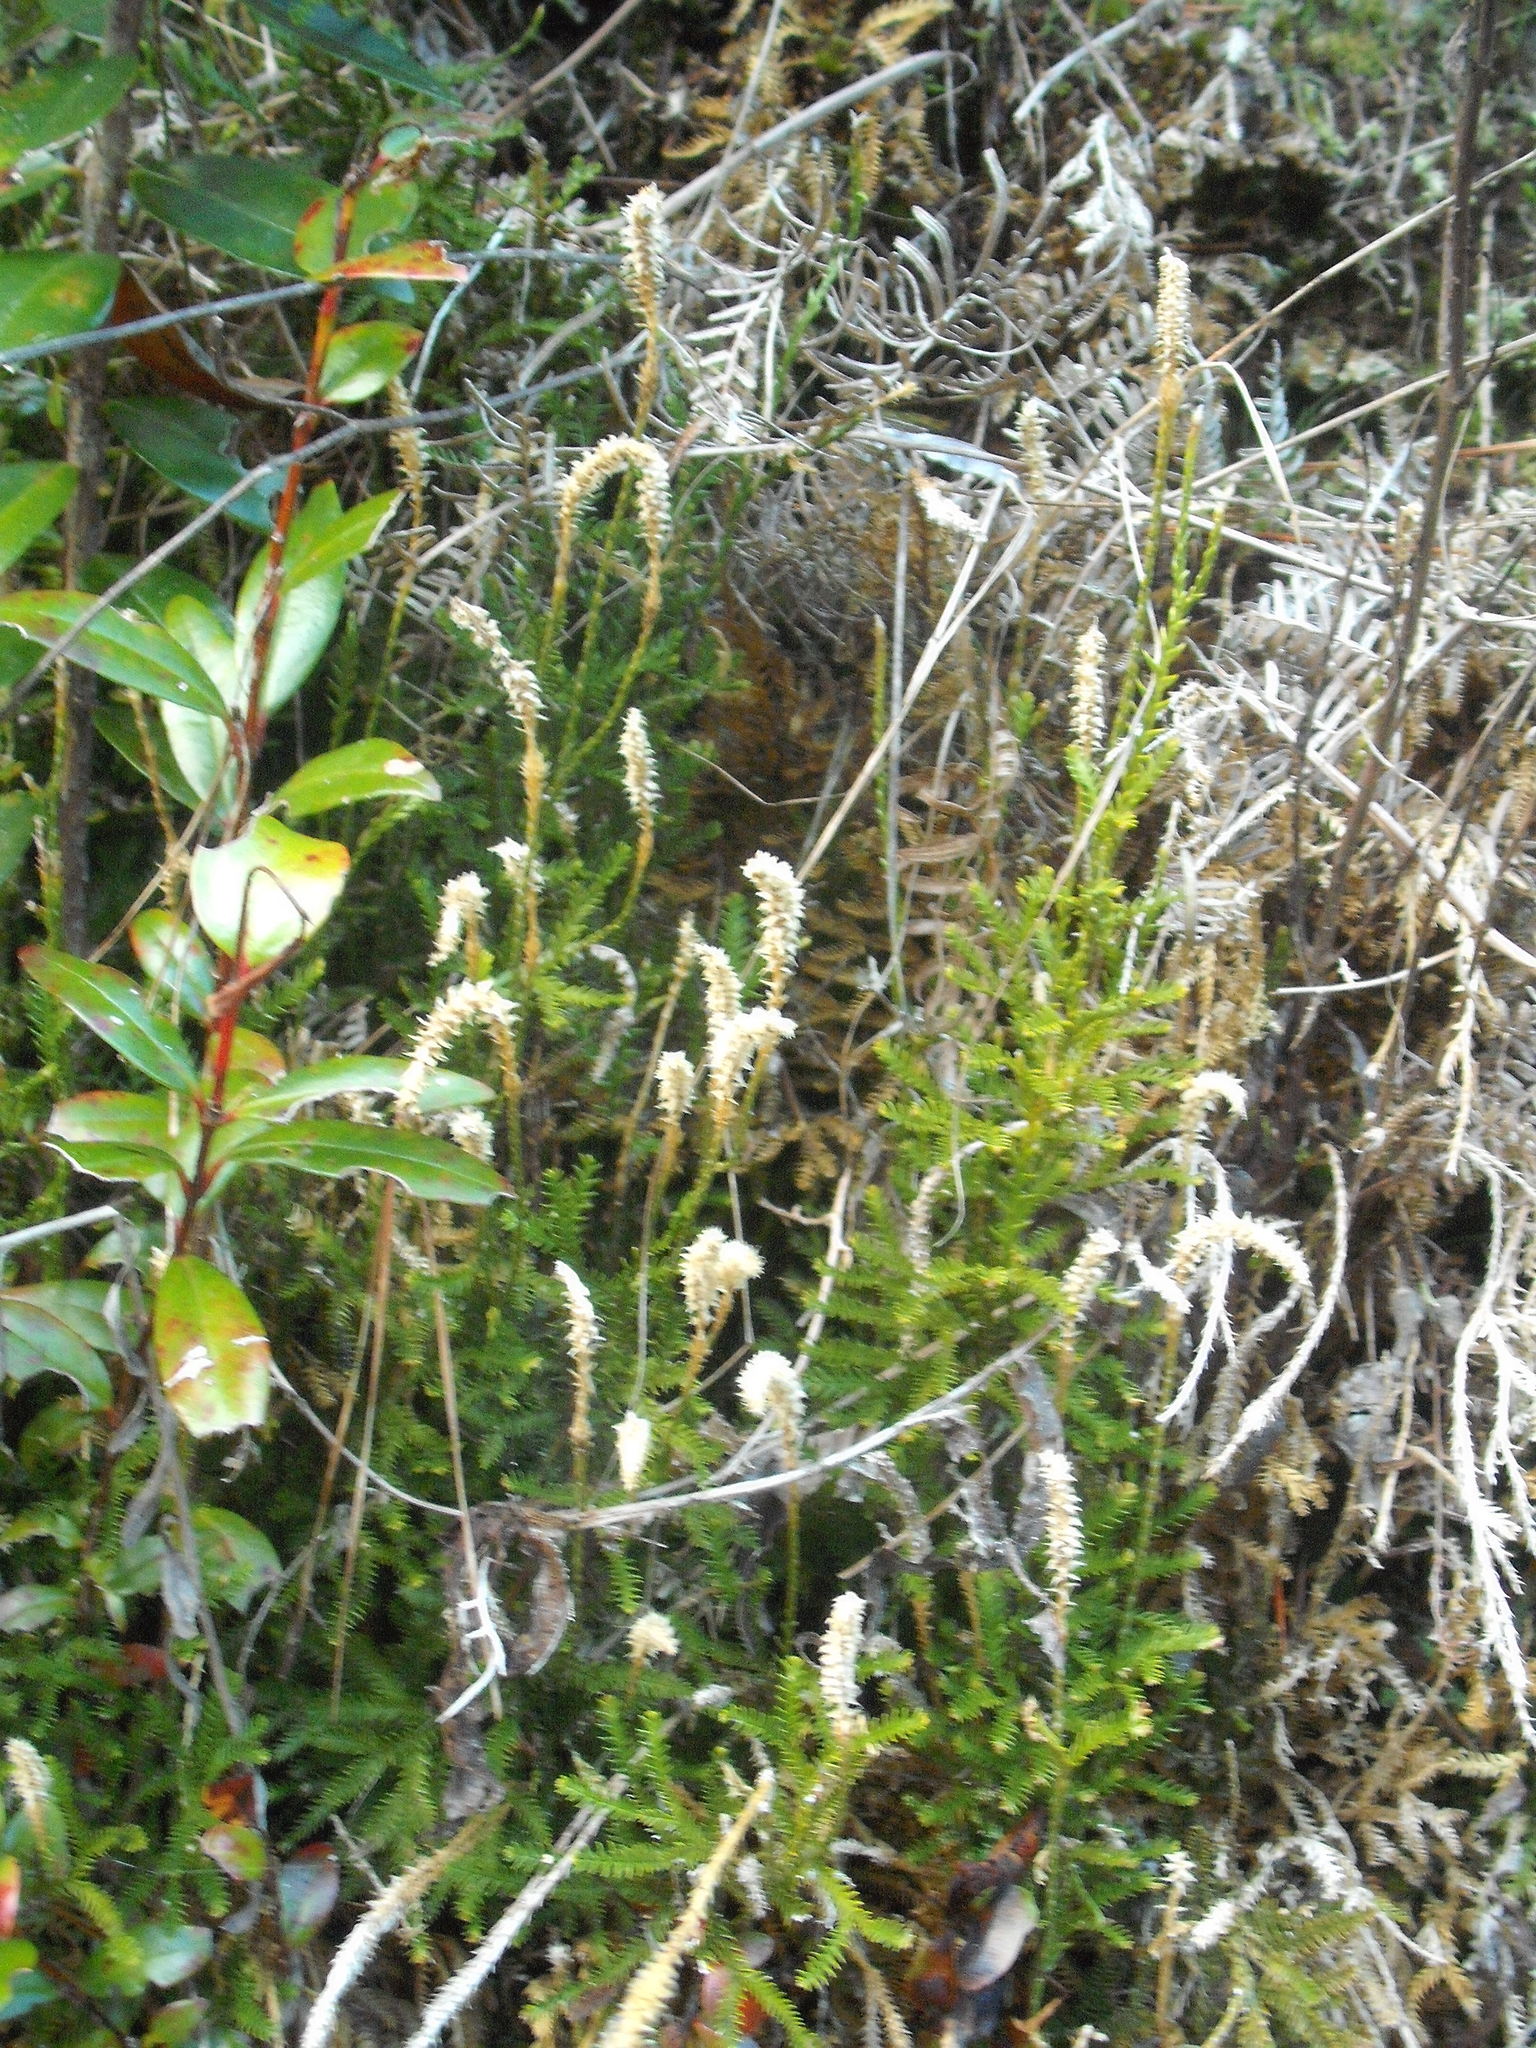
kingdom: Plantae
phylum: Tracheophyta
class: Lycopodiopsida
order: Lycopodiales
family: Lycopodiaceae
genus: Diphasium
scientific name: Diphasium scariosum
